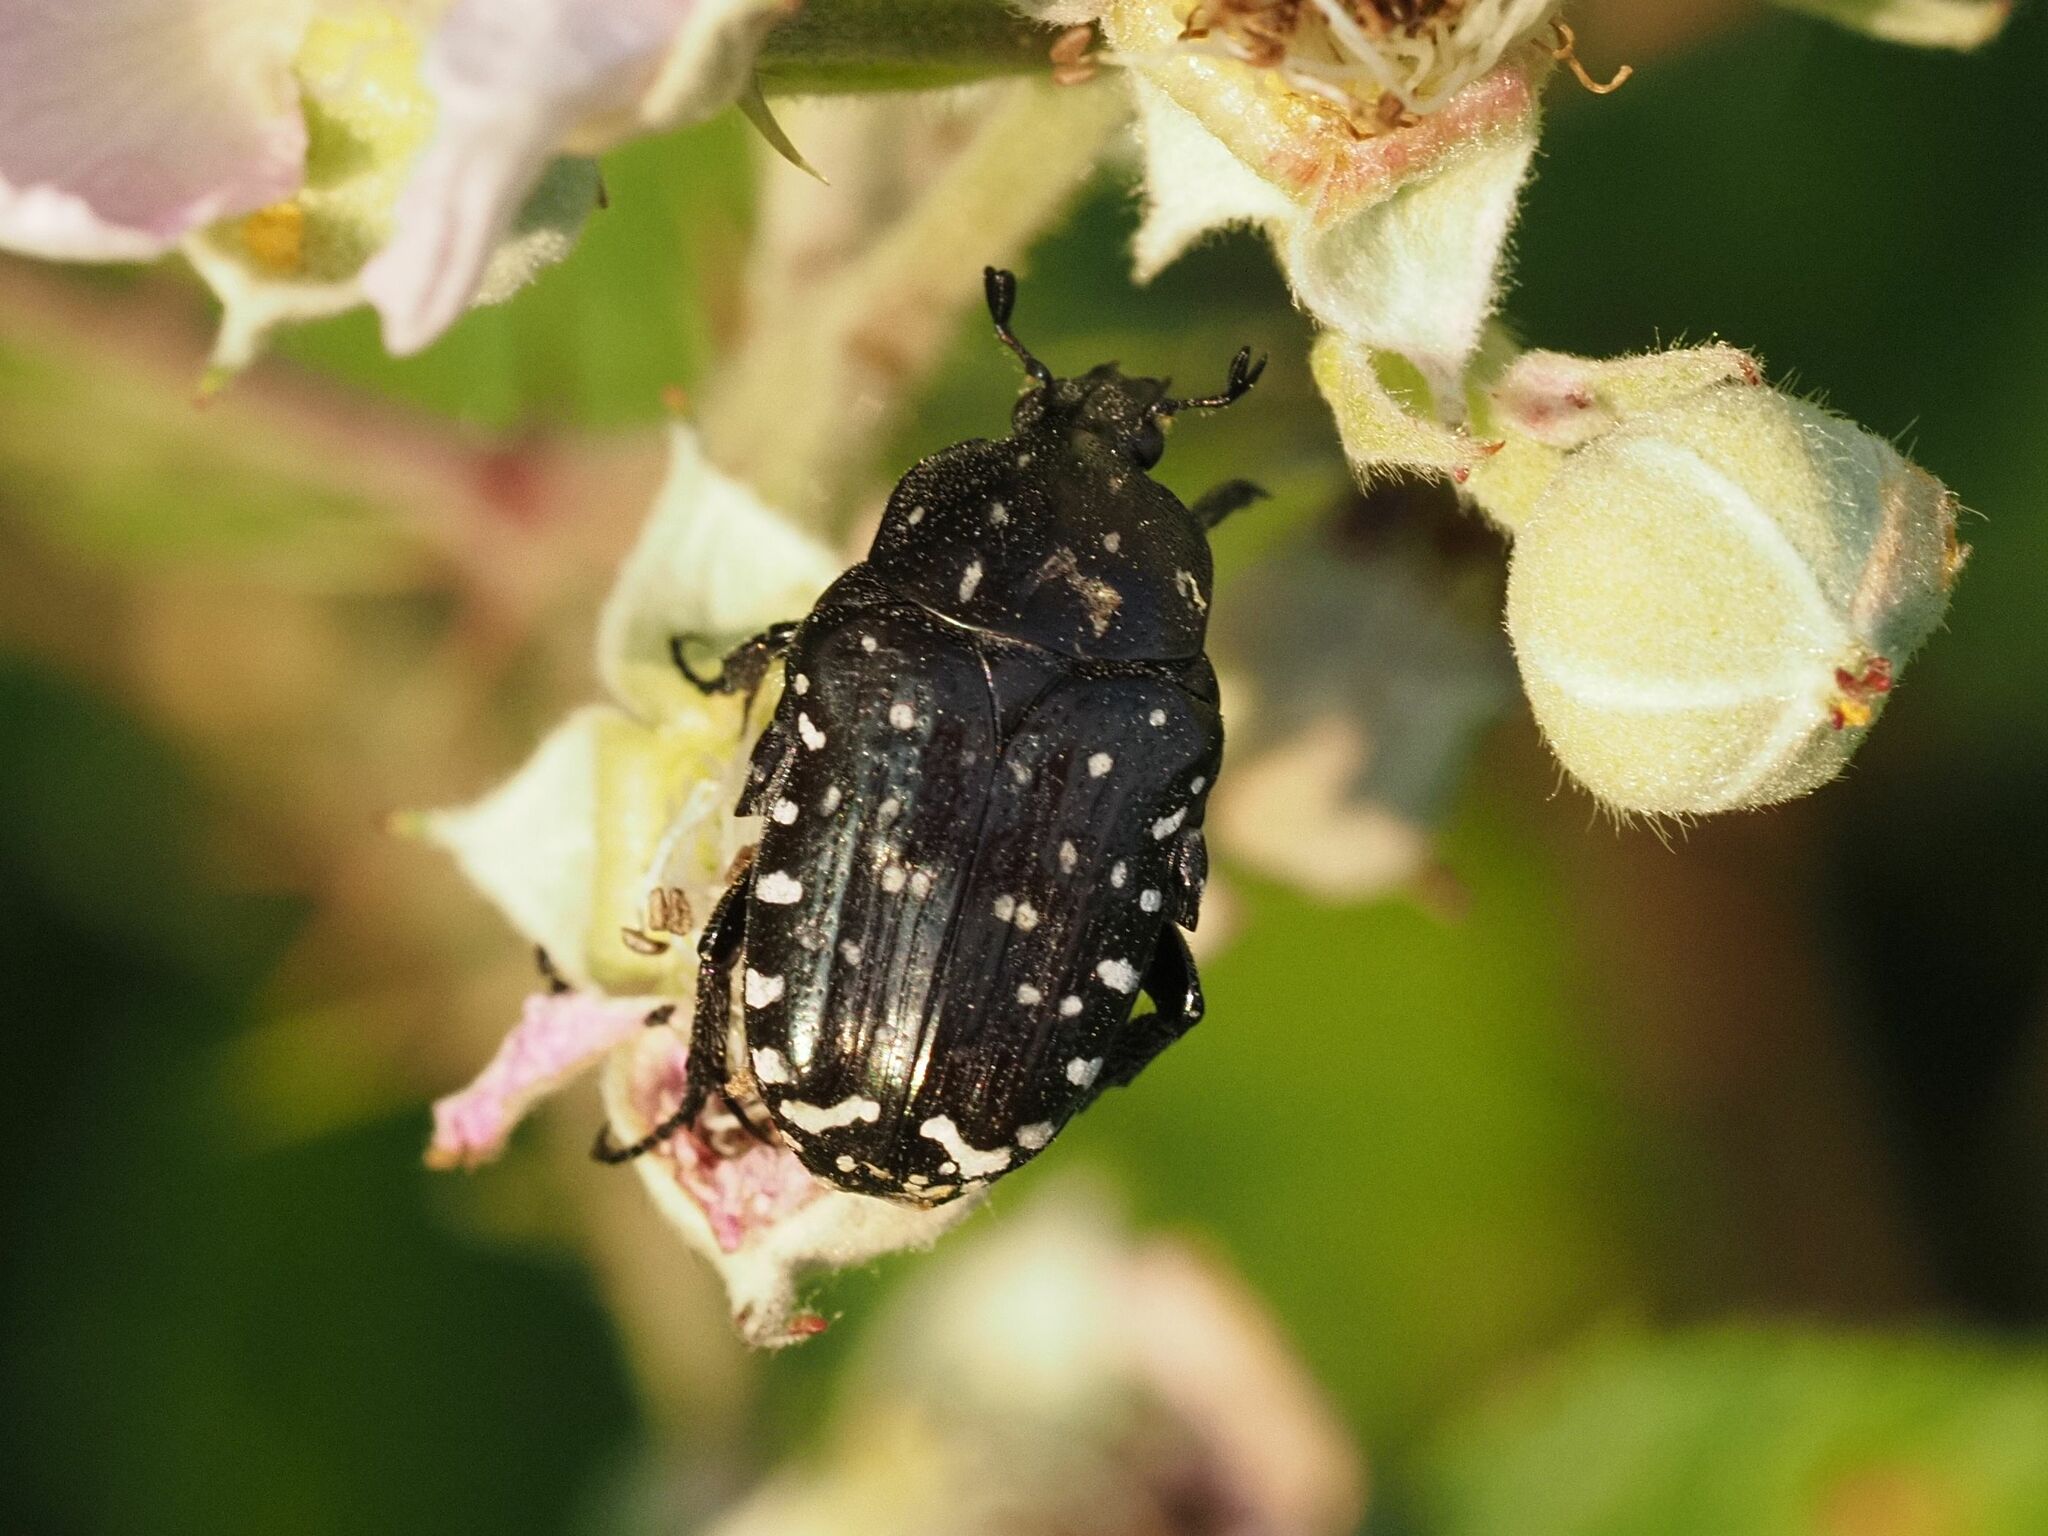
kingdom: Animalia
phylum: Arthropoda
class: Insecta
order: Coleoptera
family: Scarabaeidae
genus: Oxythyrea
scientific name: Oxythyrea funesta
